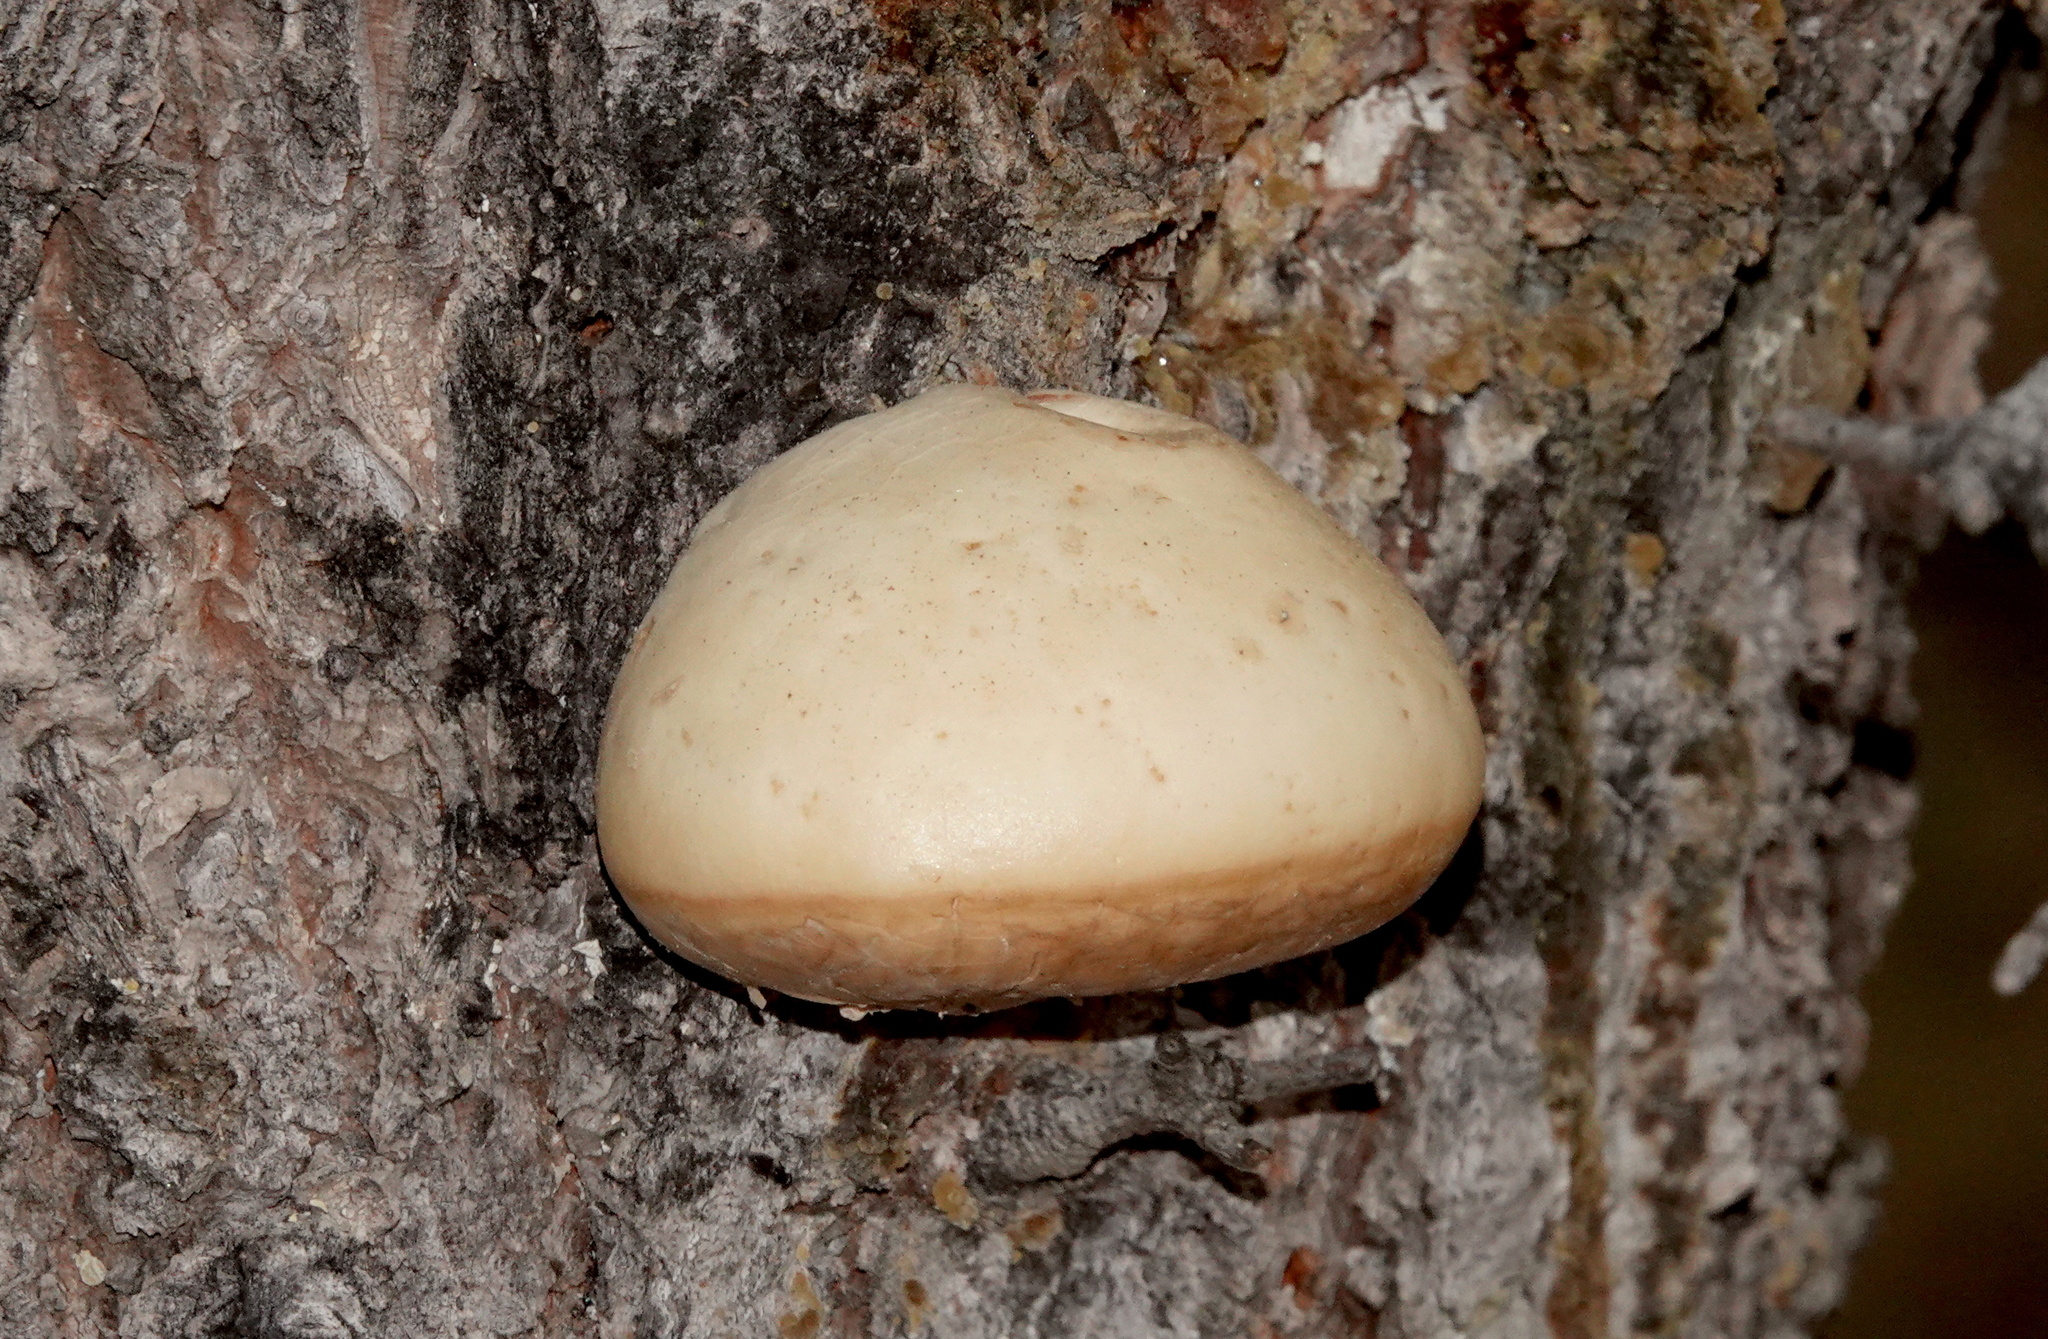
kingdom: Fungi
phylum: Basidiomycota
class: Agaricomycetes
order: Polyporales
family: Polyporaceae
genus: Cryptoporus
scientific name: Cryptoporus volvatus
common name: Veiled polypore
